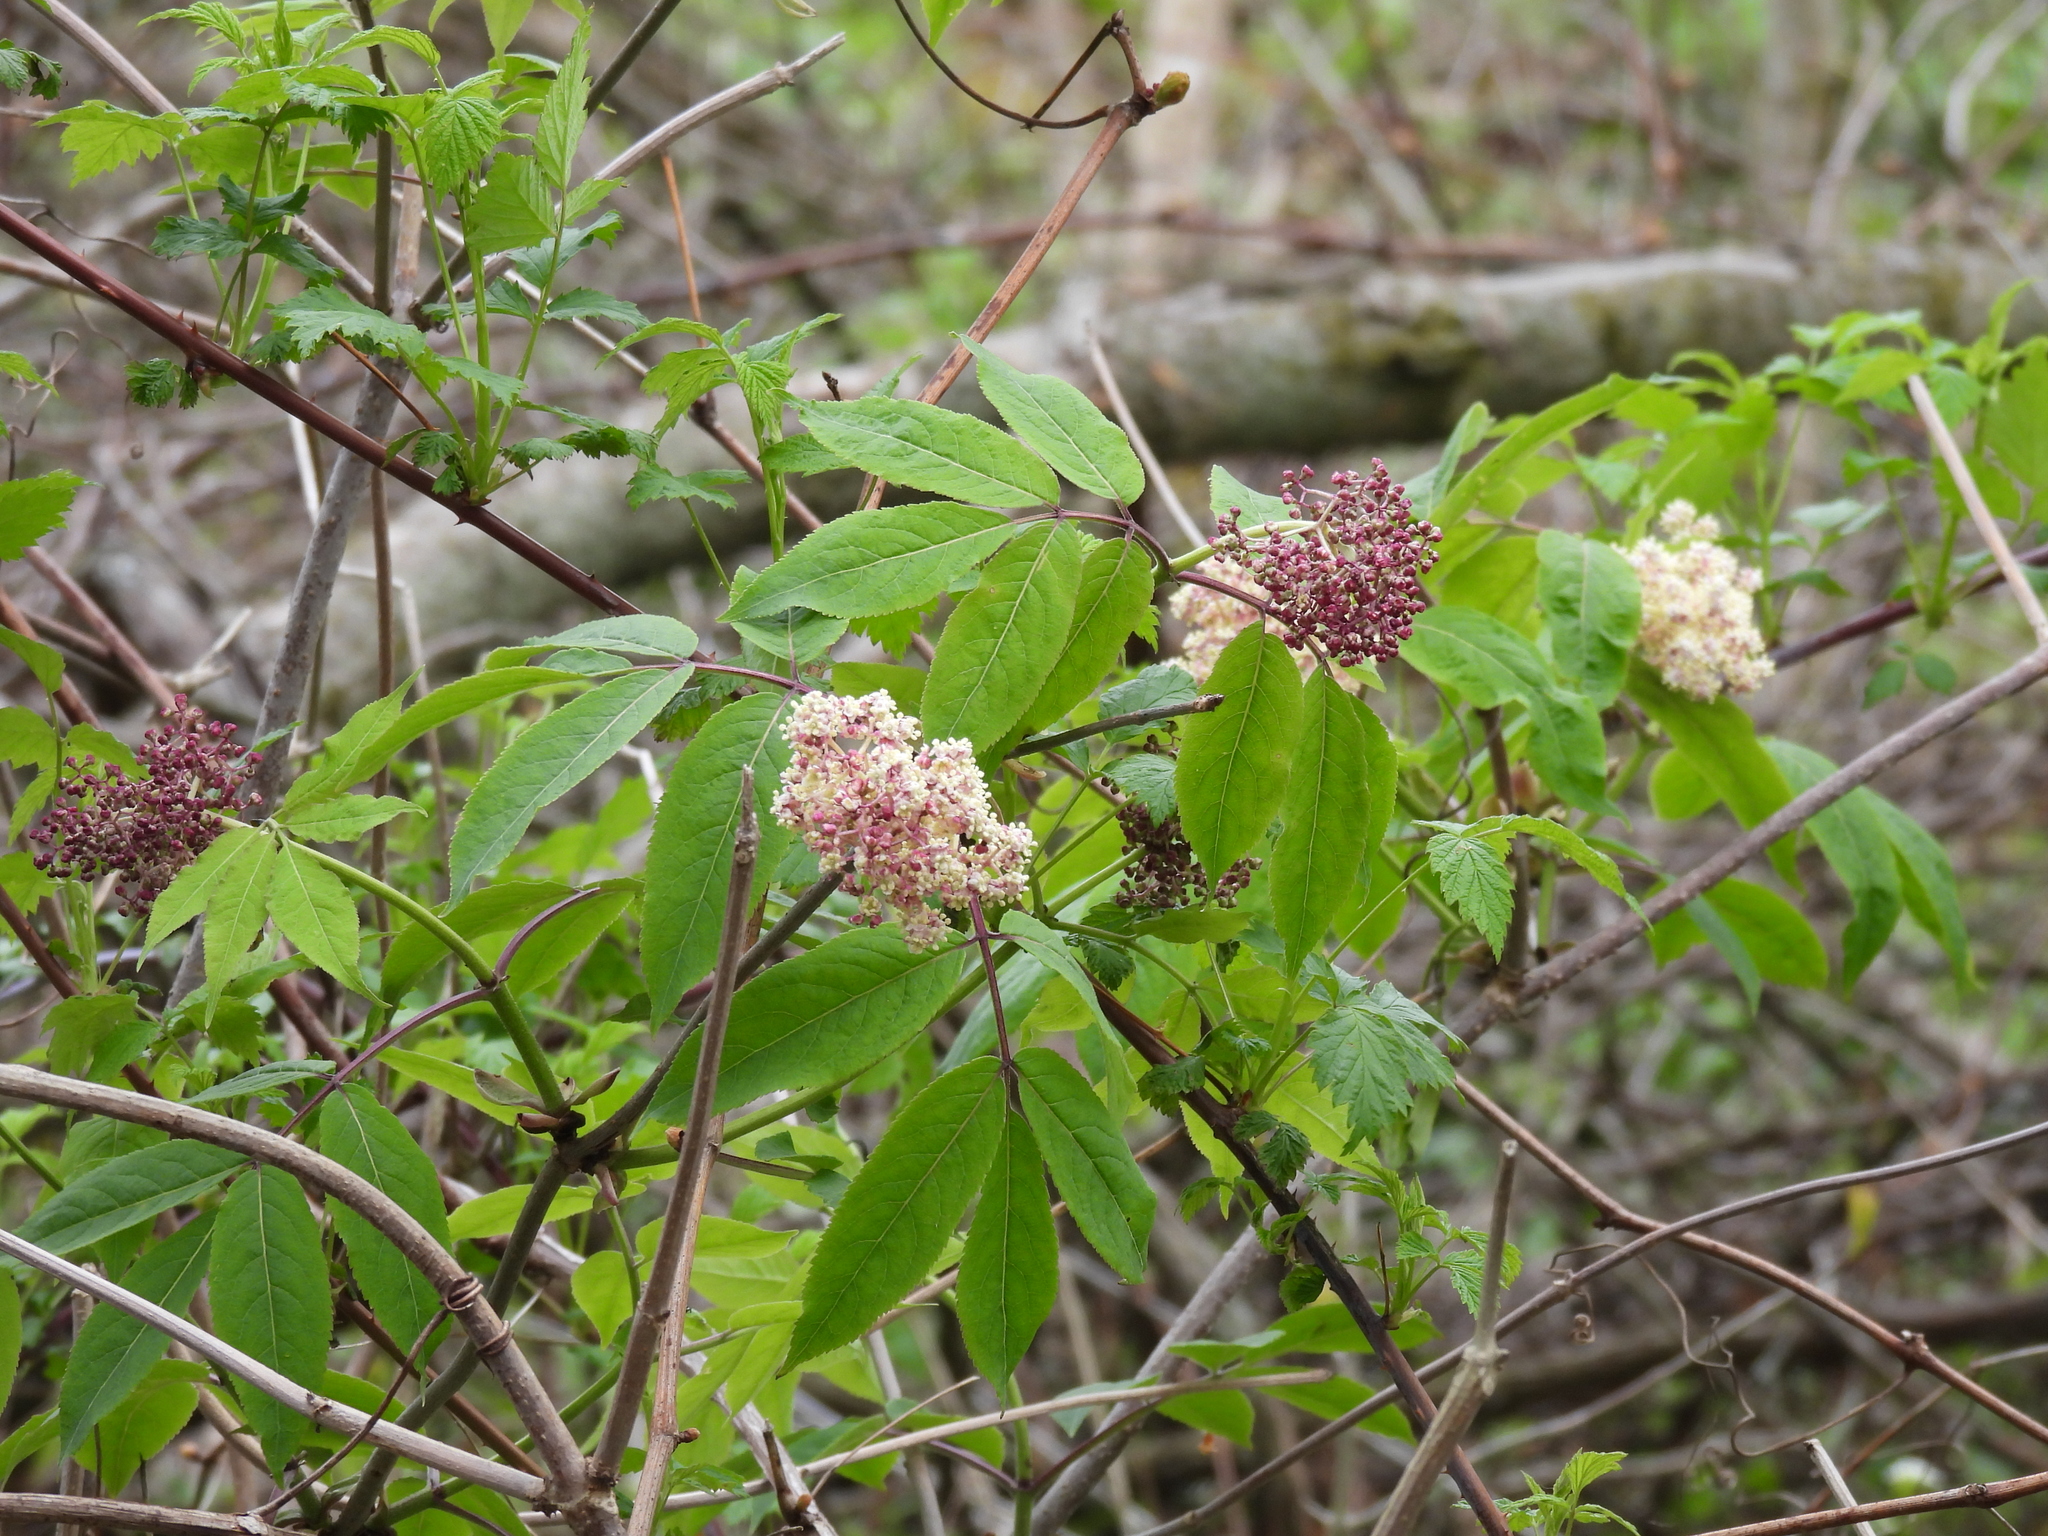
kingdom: Plantae
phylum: Tracheophyta
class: Magnoliopsida
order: Dipsacales
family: Viburnaceae
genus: Sambucus
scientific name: Sambucus racemosa
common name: Red-berried elder
